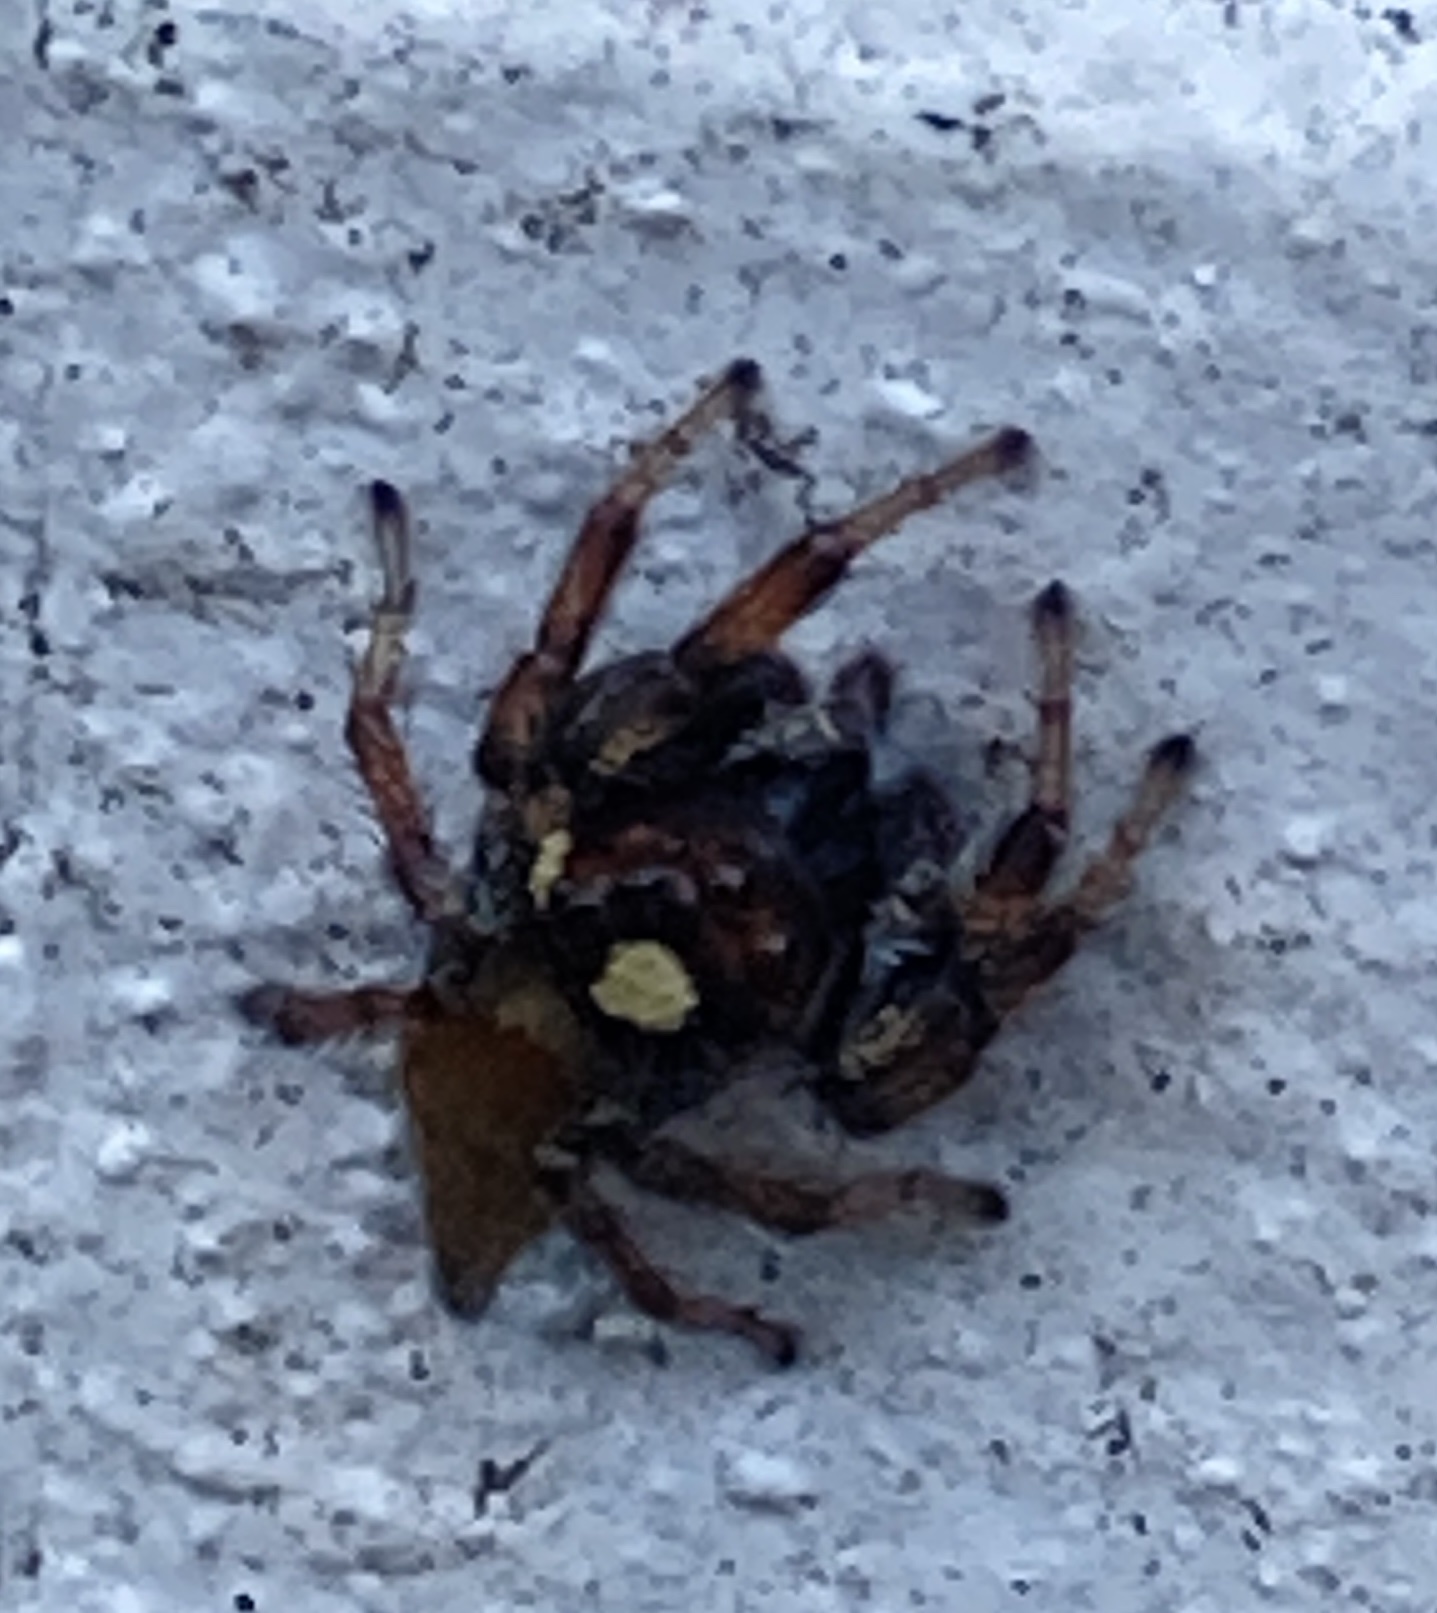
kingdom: Animalia
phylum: Arthropoda
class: Arachnida
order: Araneae
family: Salticidae
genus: Colonus
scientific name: Colonus hesperus
